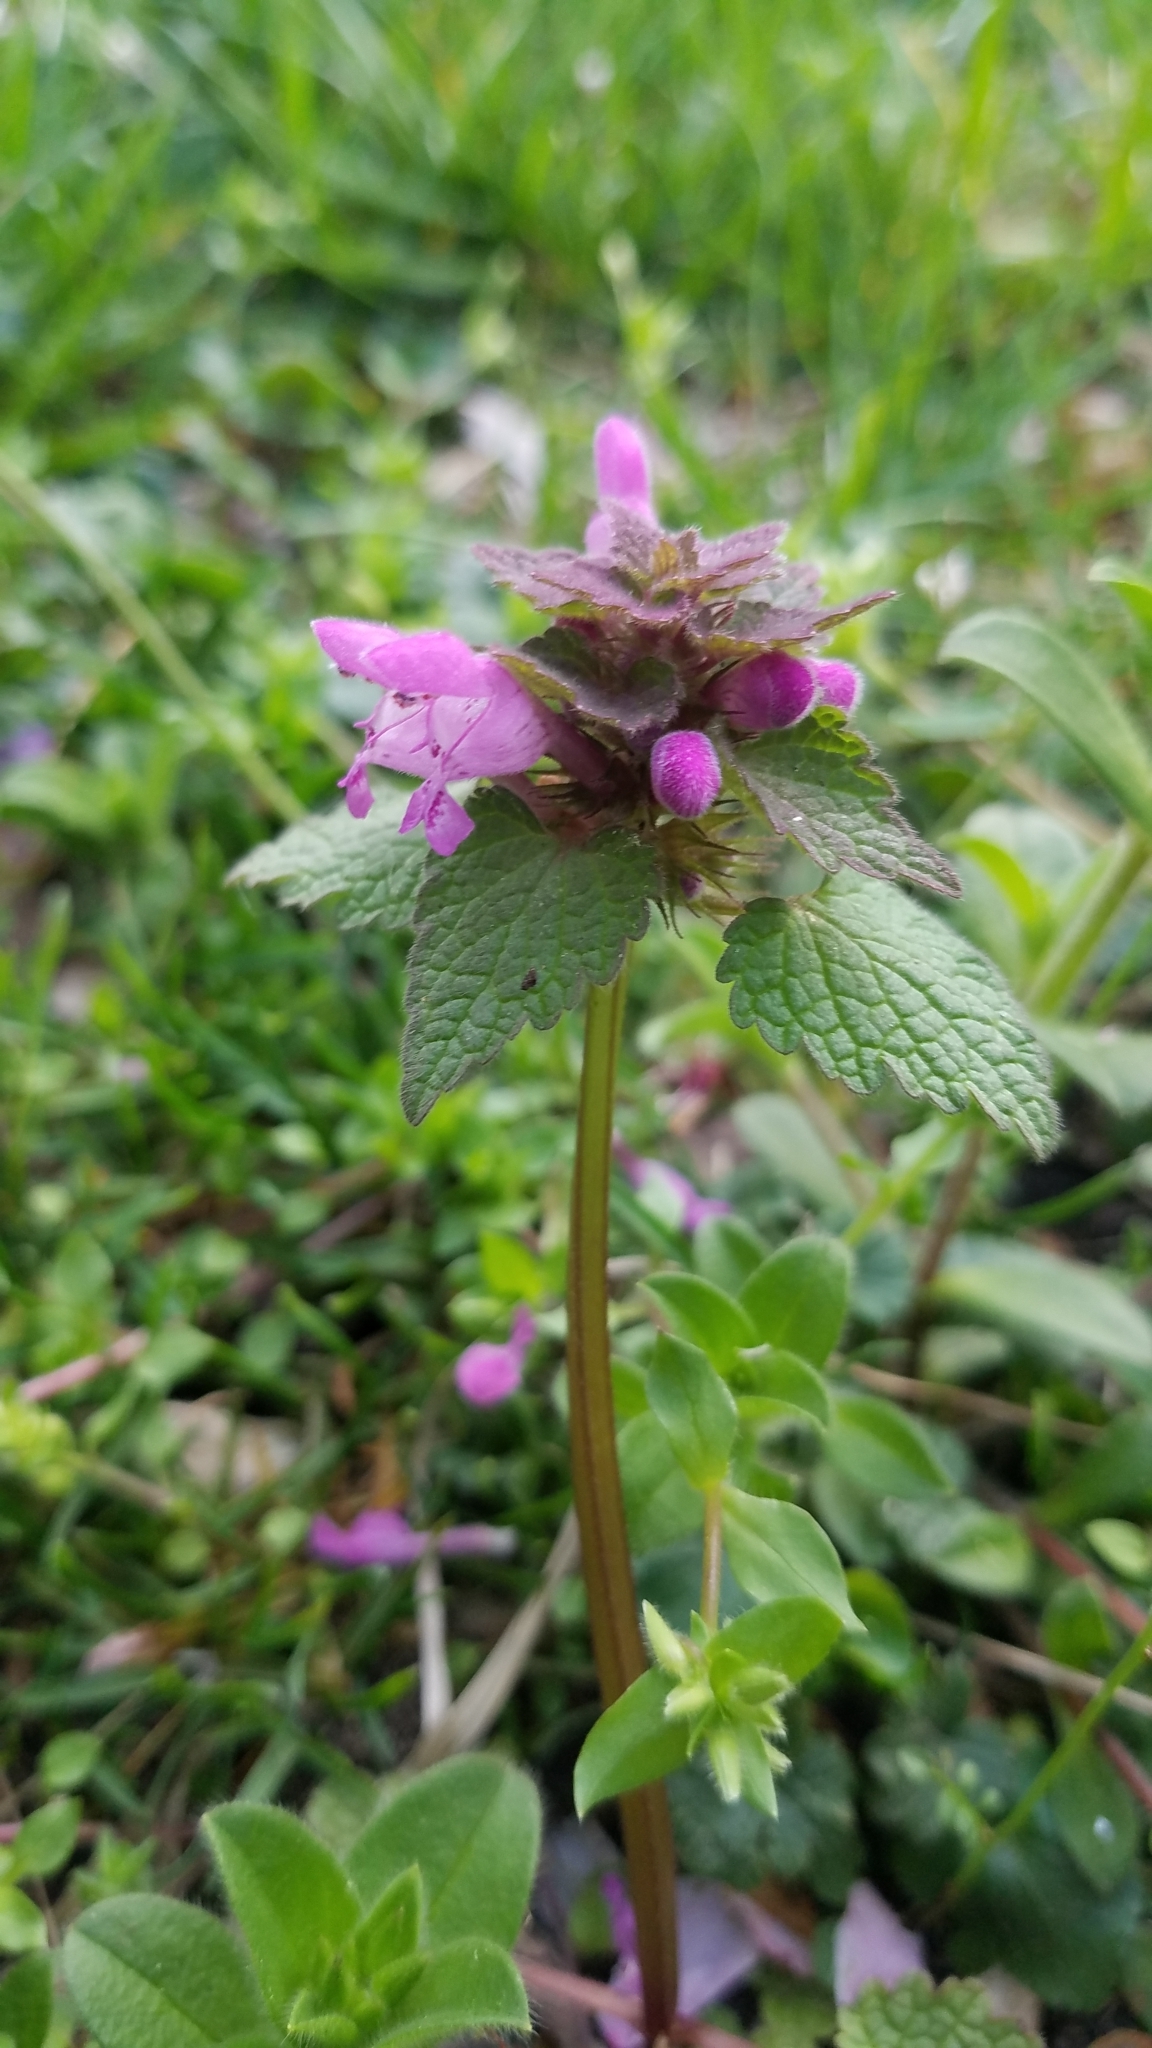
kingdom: Plantae
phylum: Tracheophyta
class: Magnoliopsida
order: Lamiales
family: Lamiaceae
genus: Lamium
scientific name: Lamium purpureum
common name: Red dead-nettle
